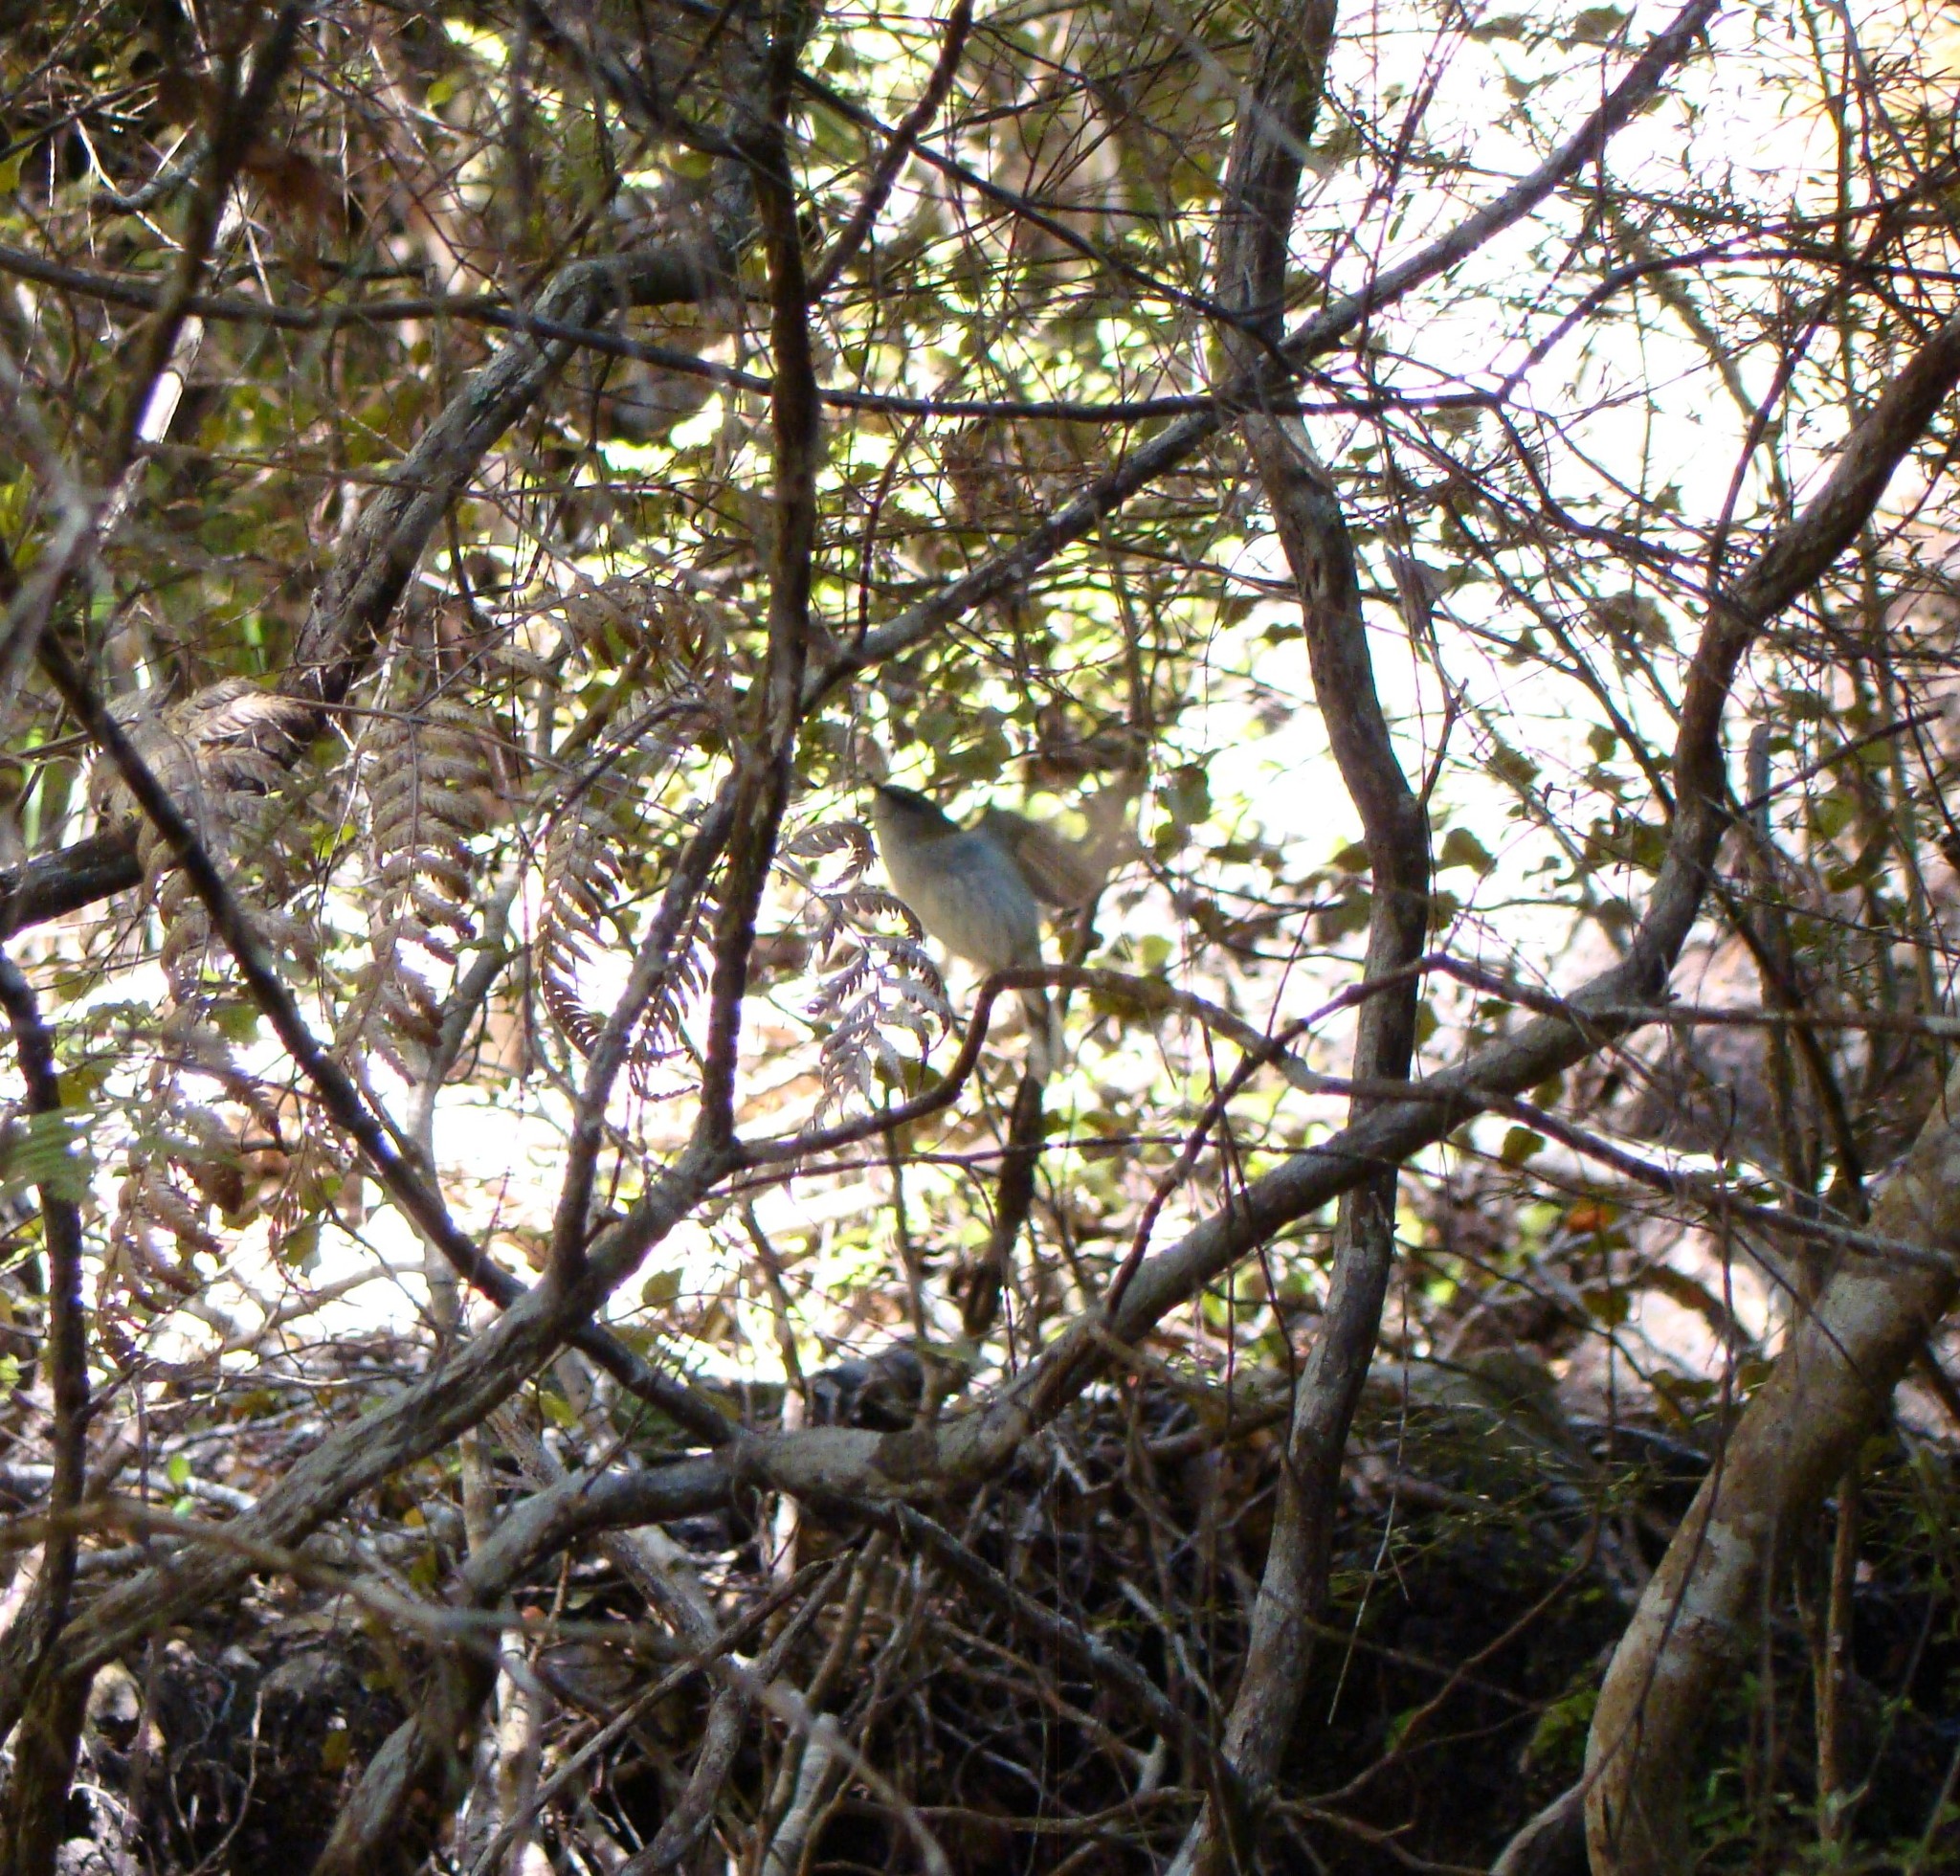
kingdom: Animalia
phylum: Chordata
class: Aves
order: Passeriformes
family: Acanthizidae
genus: Gerygone
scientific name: Gerygone igata
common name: Grey gerygone
